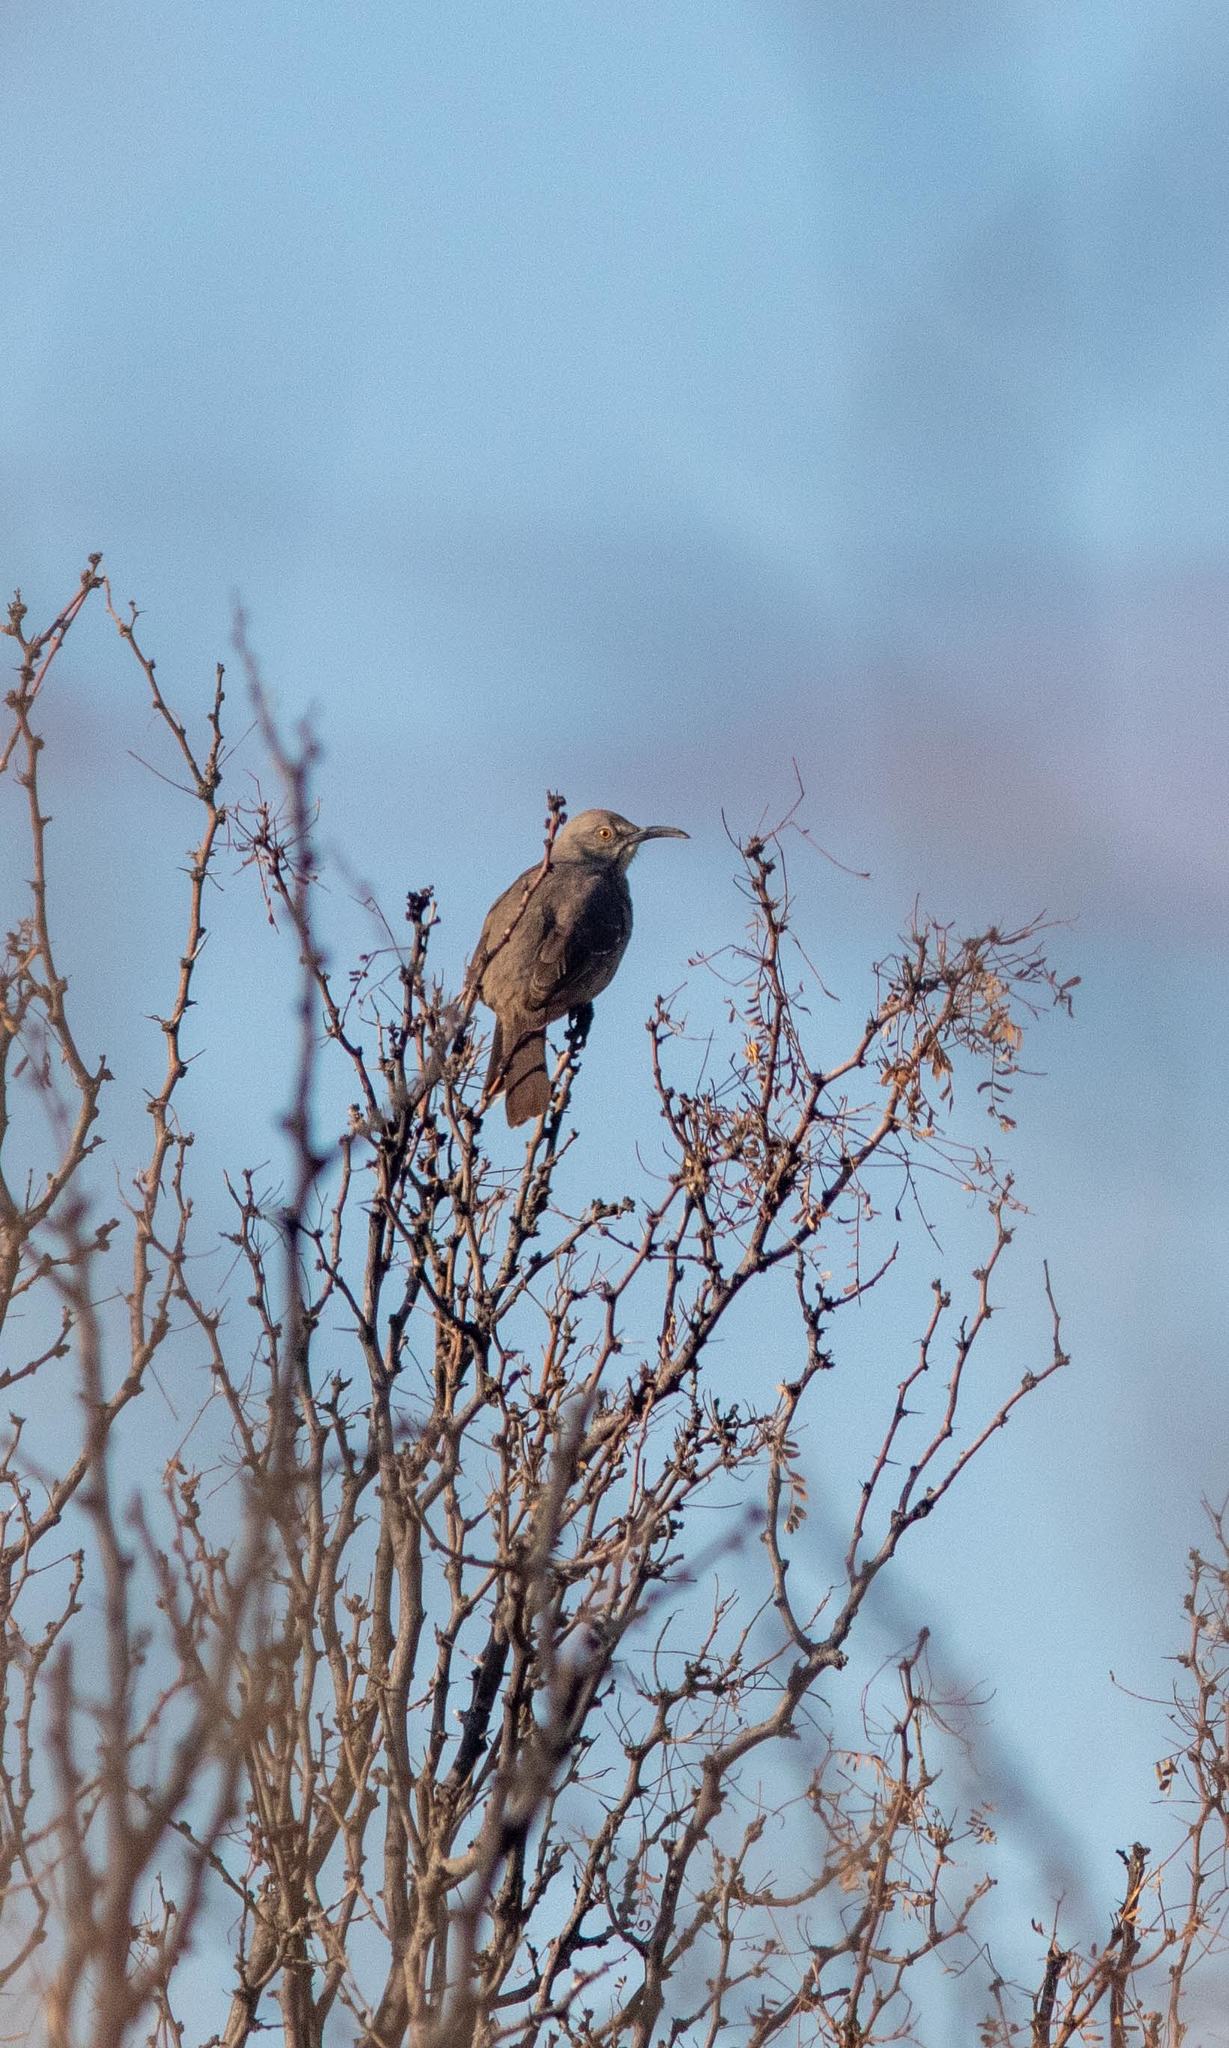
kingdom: Animalia
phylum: Chordata
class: Aves
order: Passeriformes
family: Mimidae
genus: Toxostoma
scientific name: Toxostoma curvirostre
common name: Curve-billed thrasher
